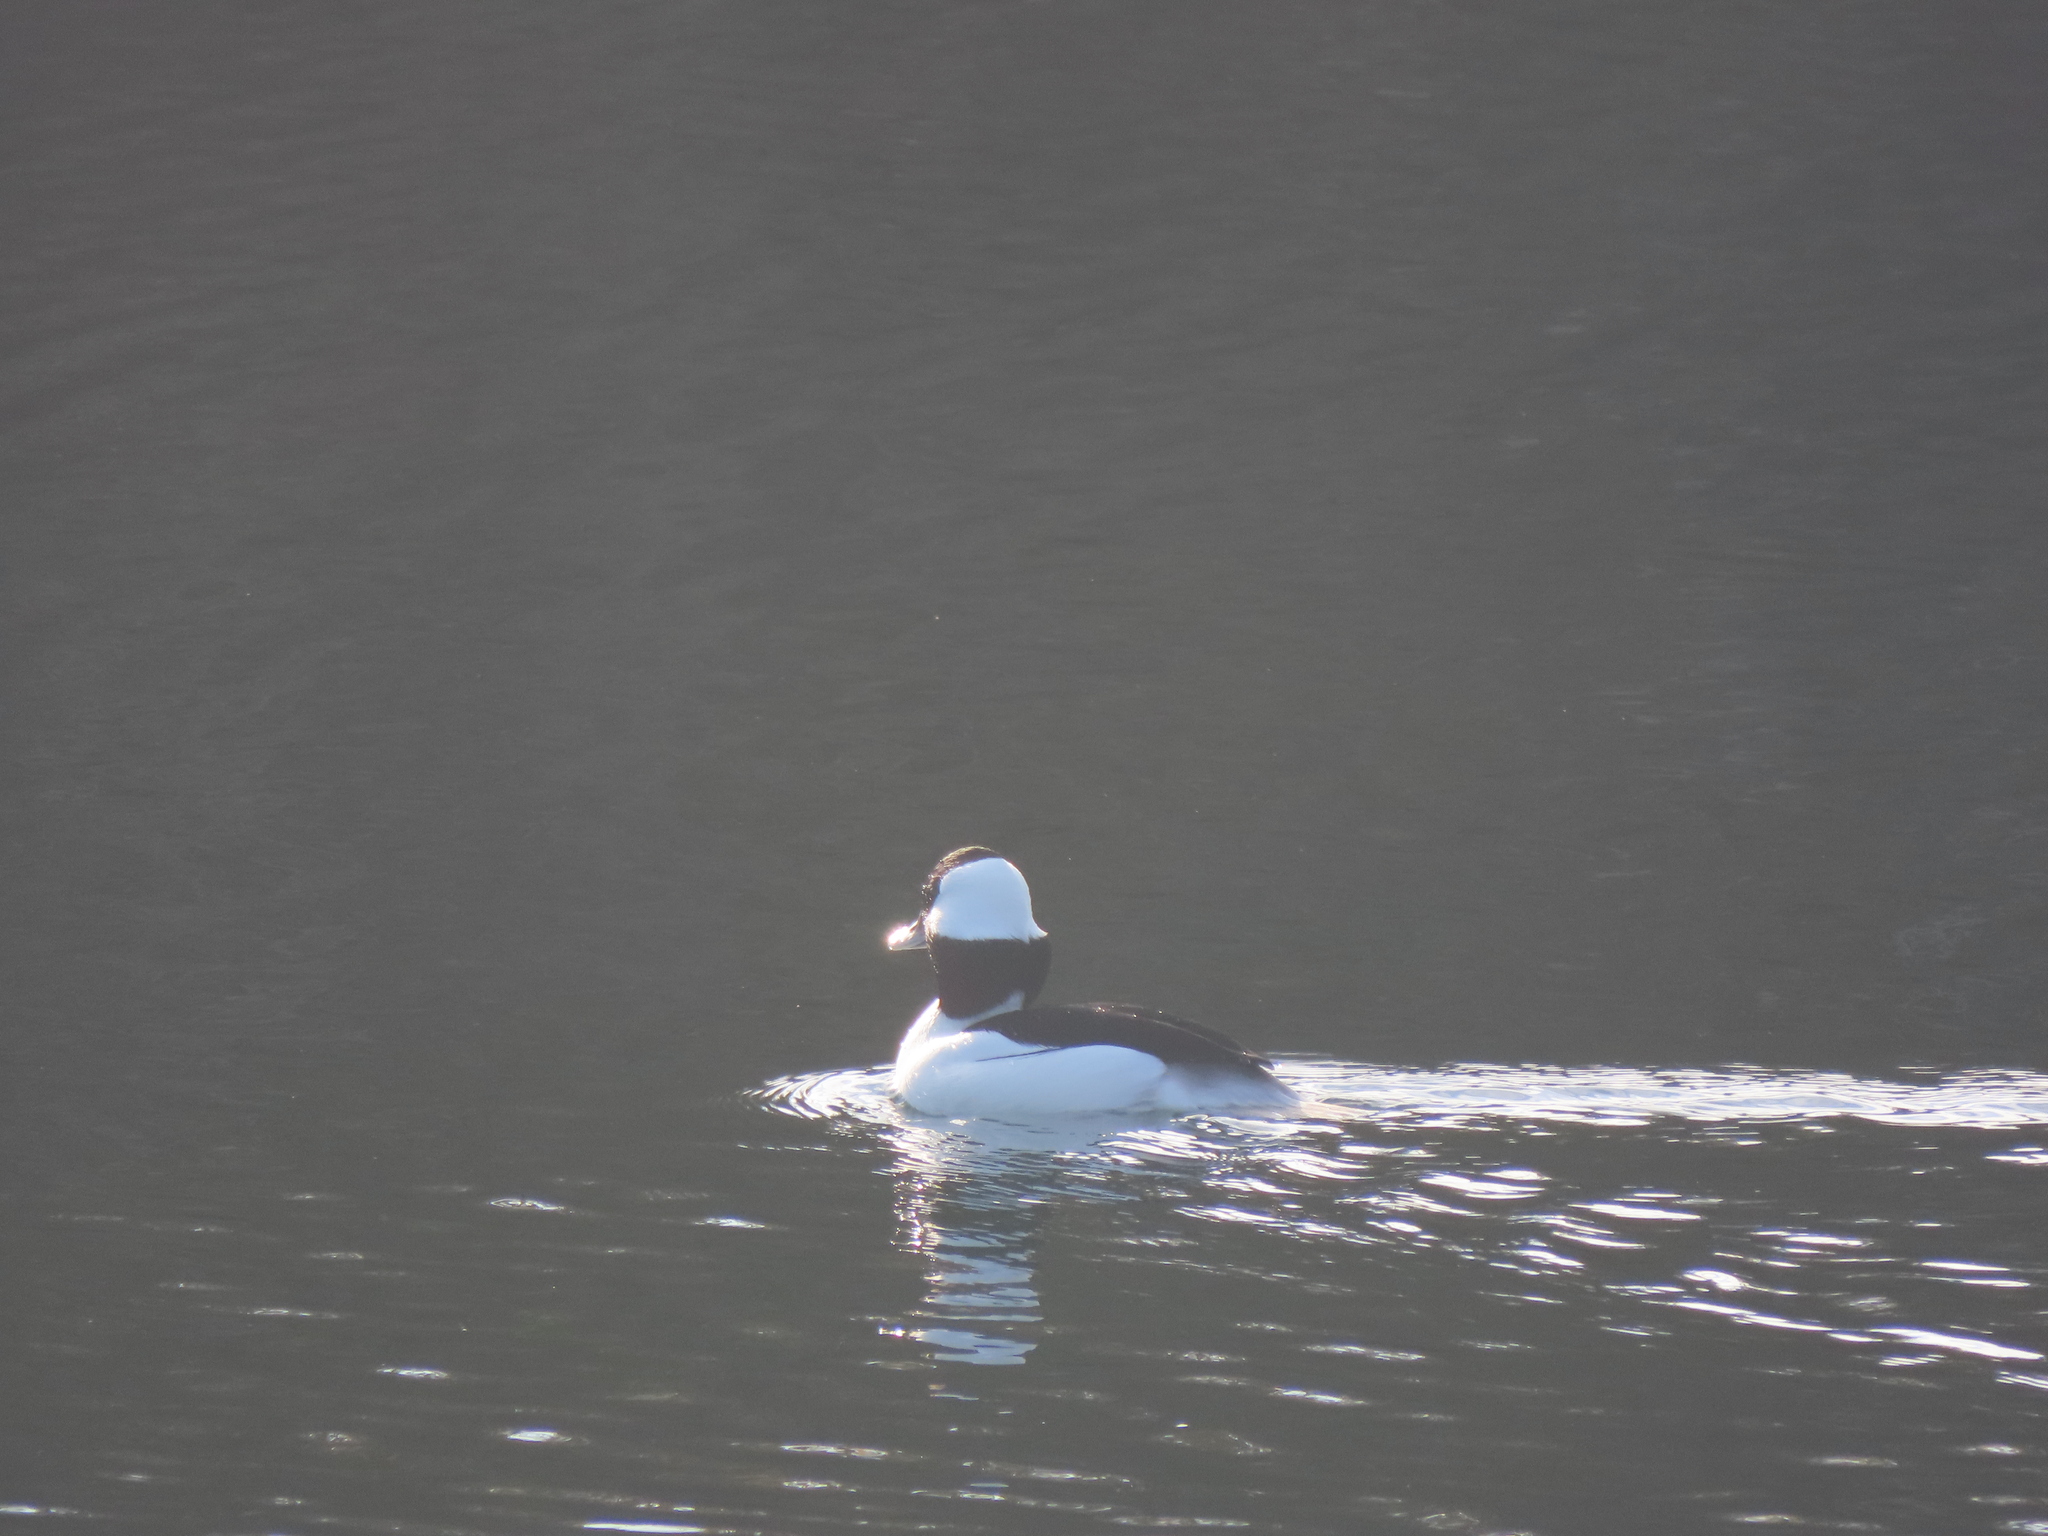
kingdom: Animalia
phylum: Chordata
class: Aves
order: Anseriformes
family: Anatidae
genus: Bucephala
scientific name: Bucephala albeola
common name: Bufflehead
